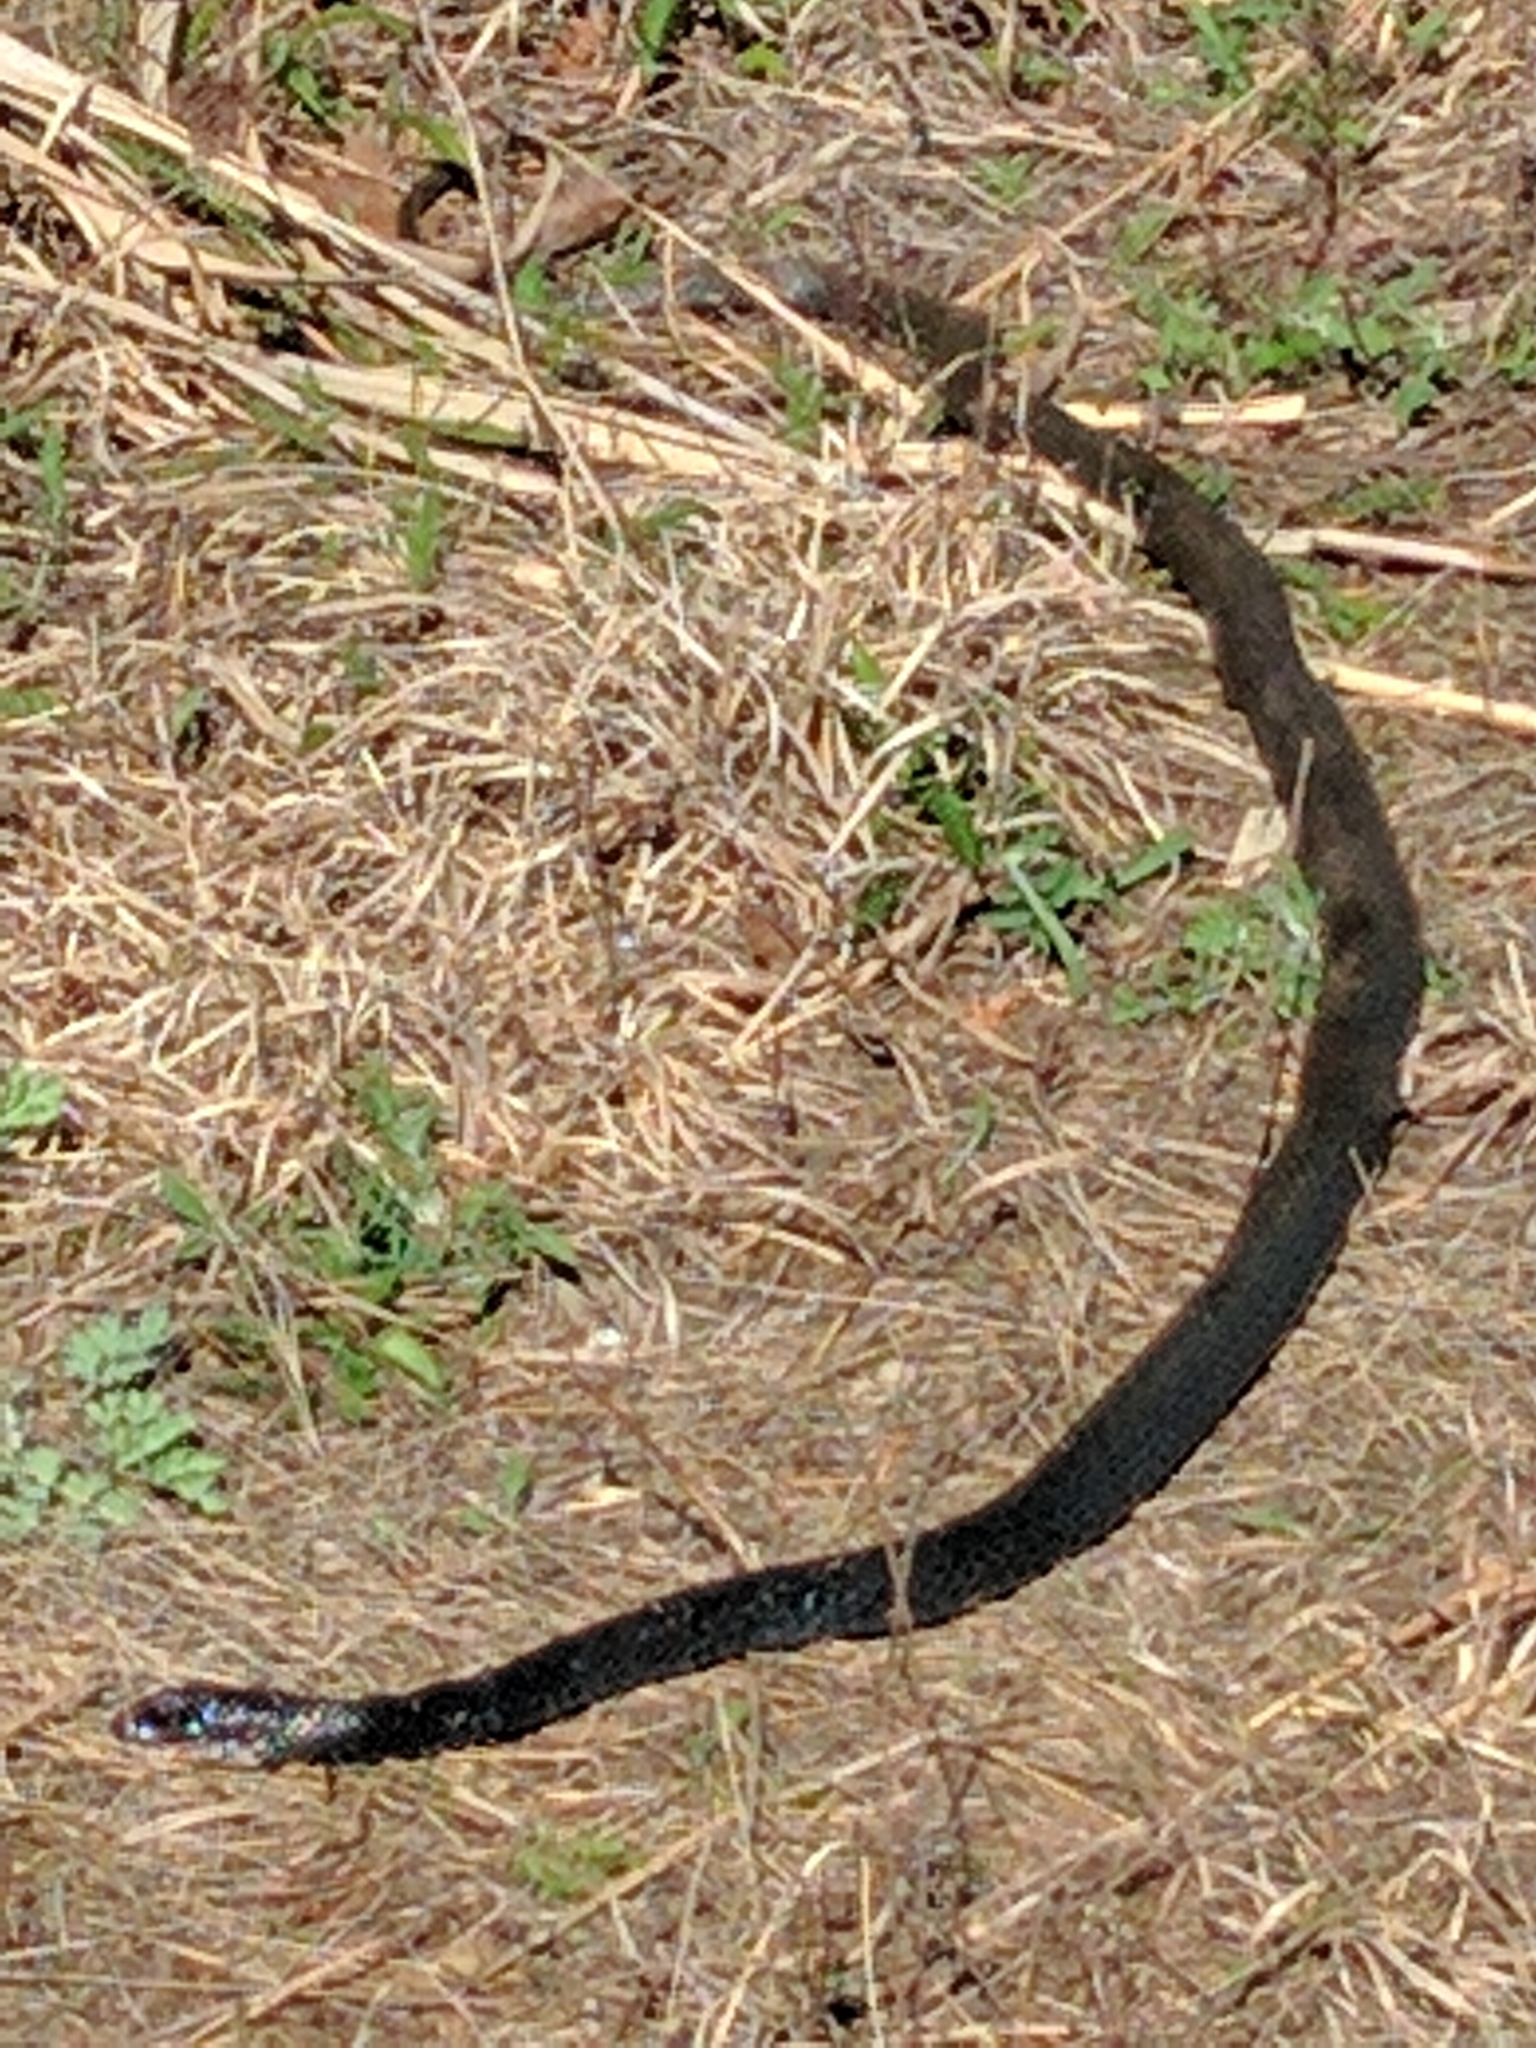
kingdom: Animalia
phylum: Chordata
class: Squamata
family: Colubridae
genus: Coluber
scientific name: Coluber constrictor
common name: Eastern racer
